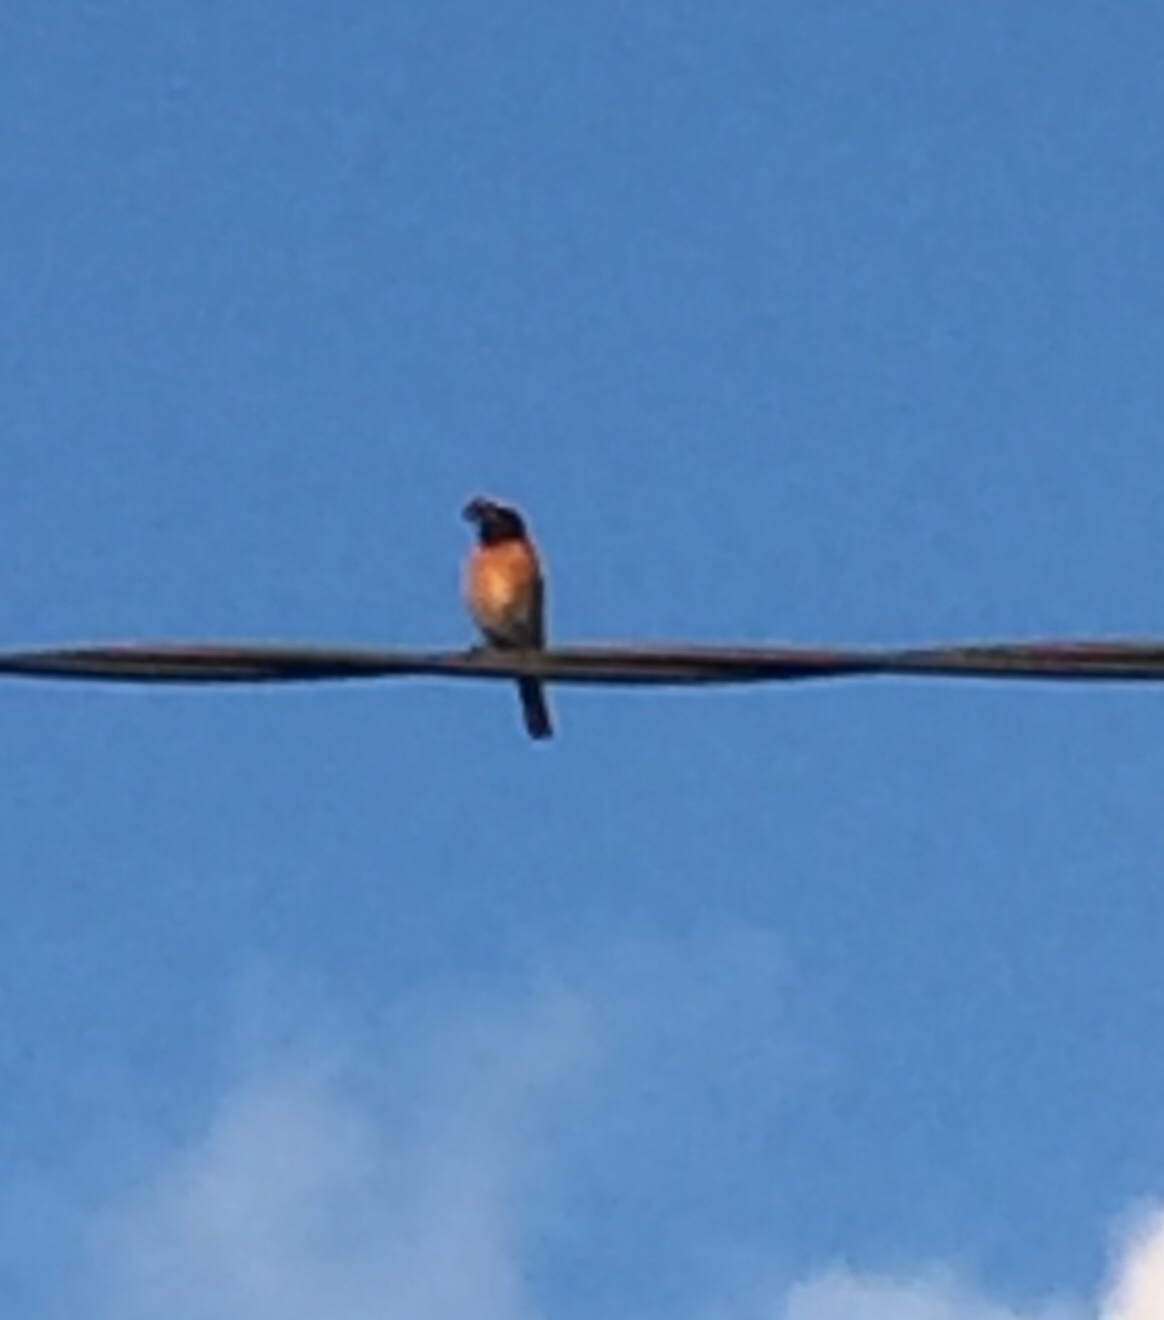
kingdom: Animalia
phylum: Chordata
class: Aves
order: Passeriformes
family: Muscicapidae
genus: Phoenicurus
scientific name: Phoenicurus phoenicurus
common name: Common redstart
